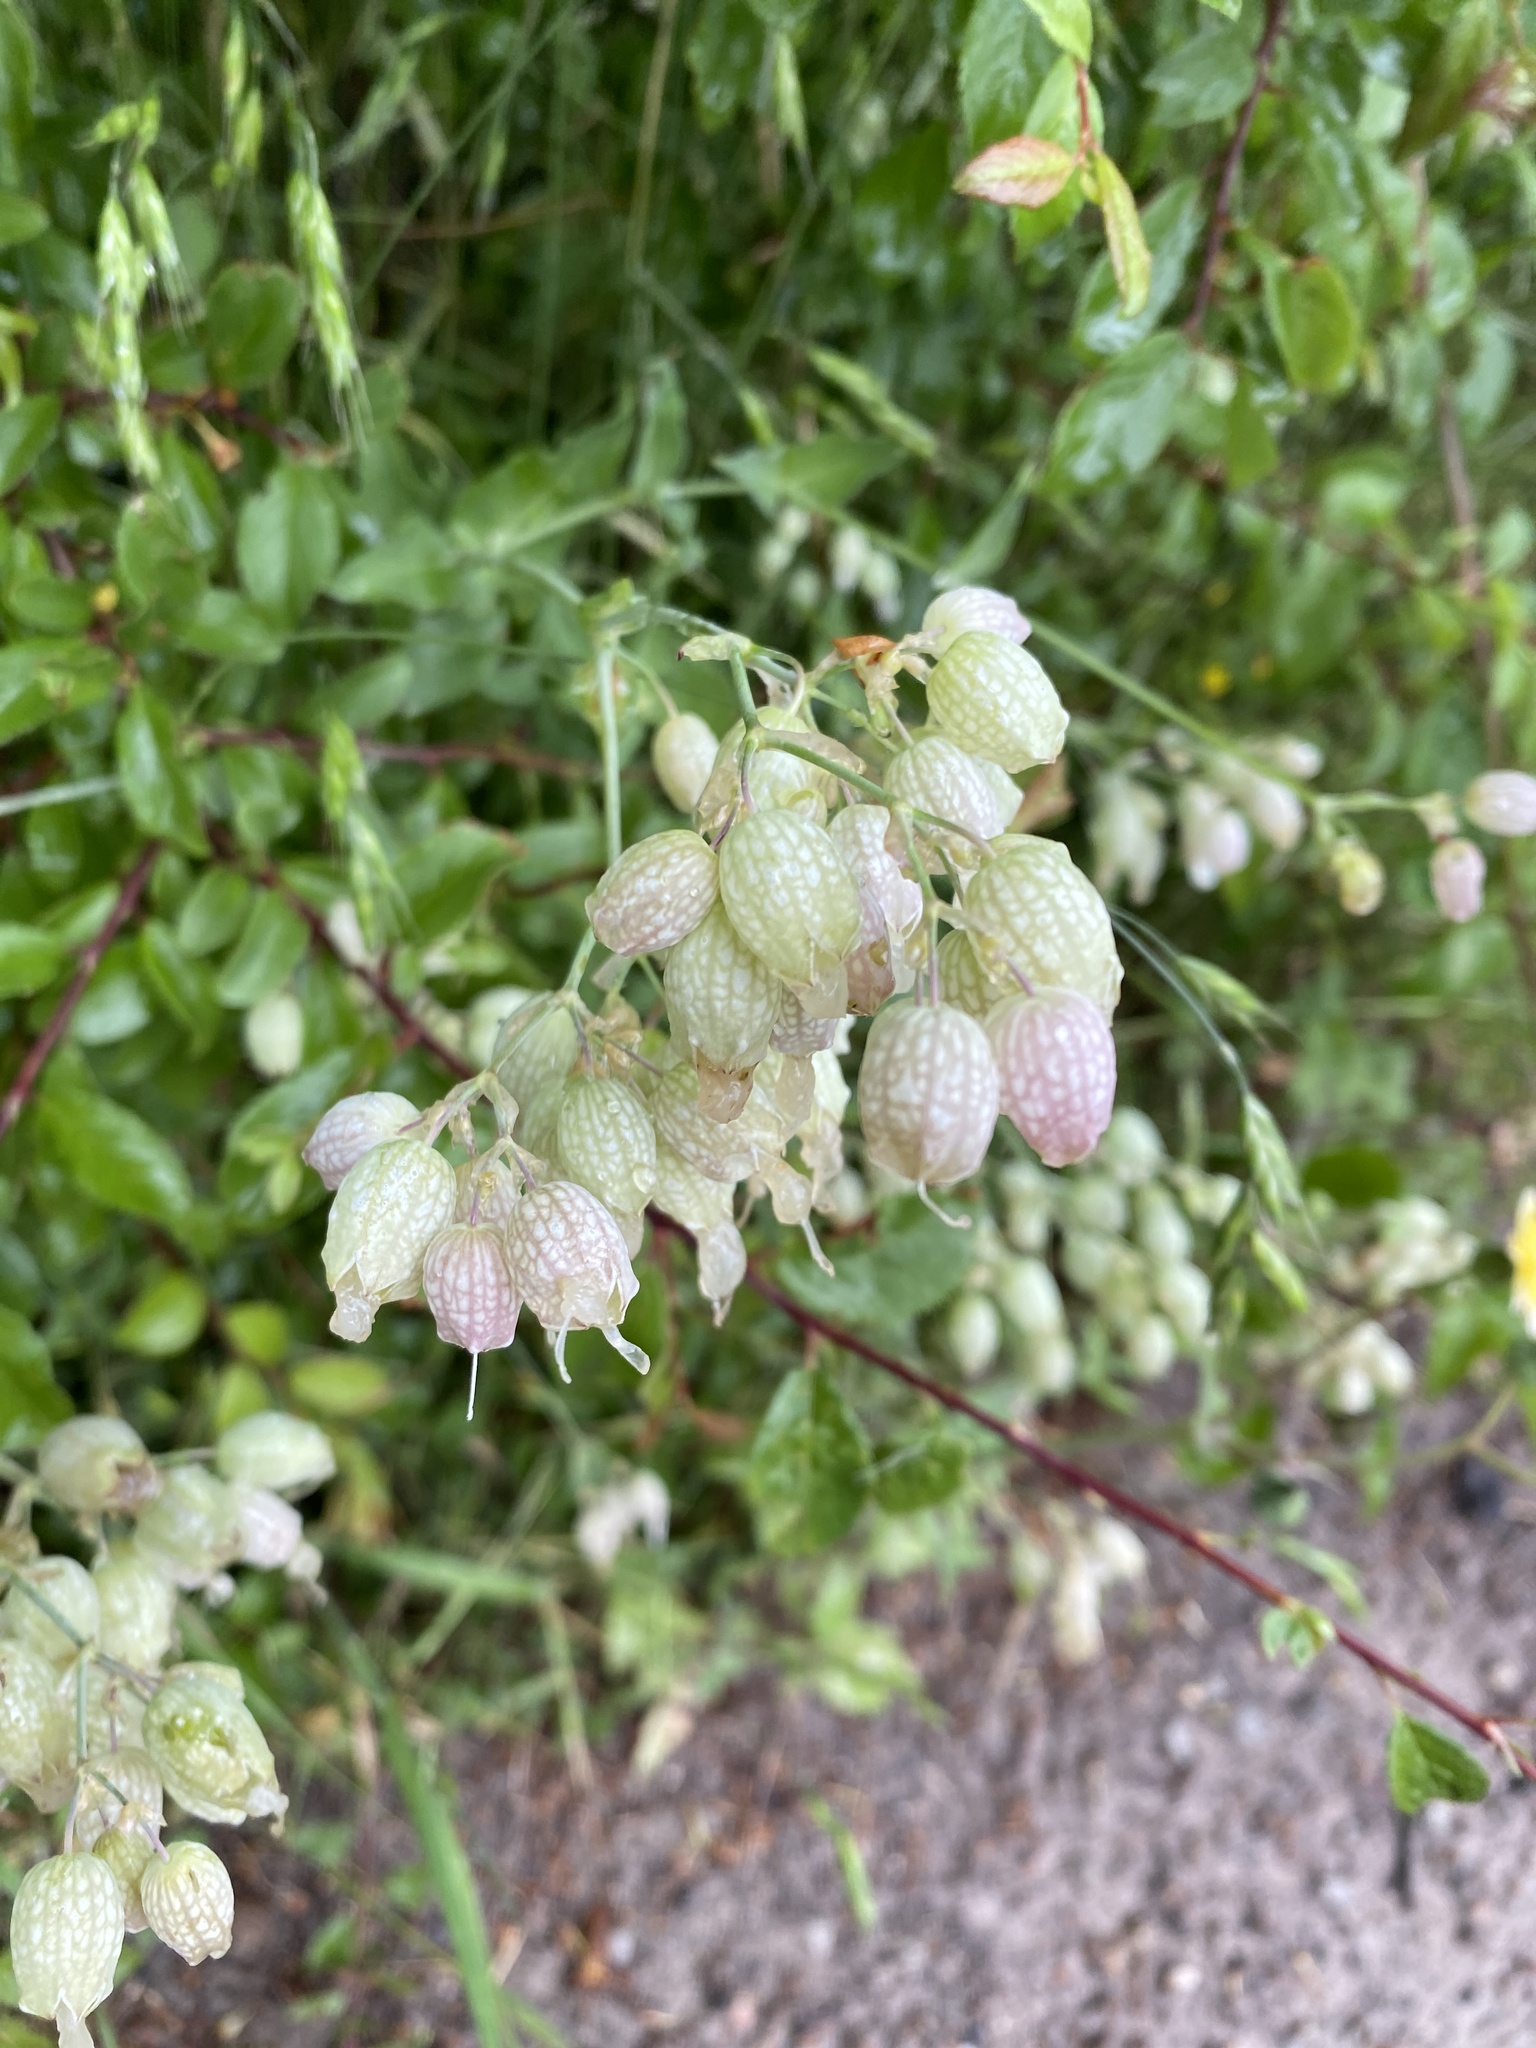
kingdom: Plantae
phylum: Tracheophyta
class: Magnoliopsida
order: Caryophyllales
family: Caryophyllaceae
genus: Silene
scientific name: Silene vulgaris
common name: Bladder campion
